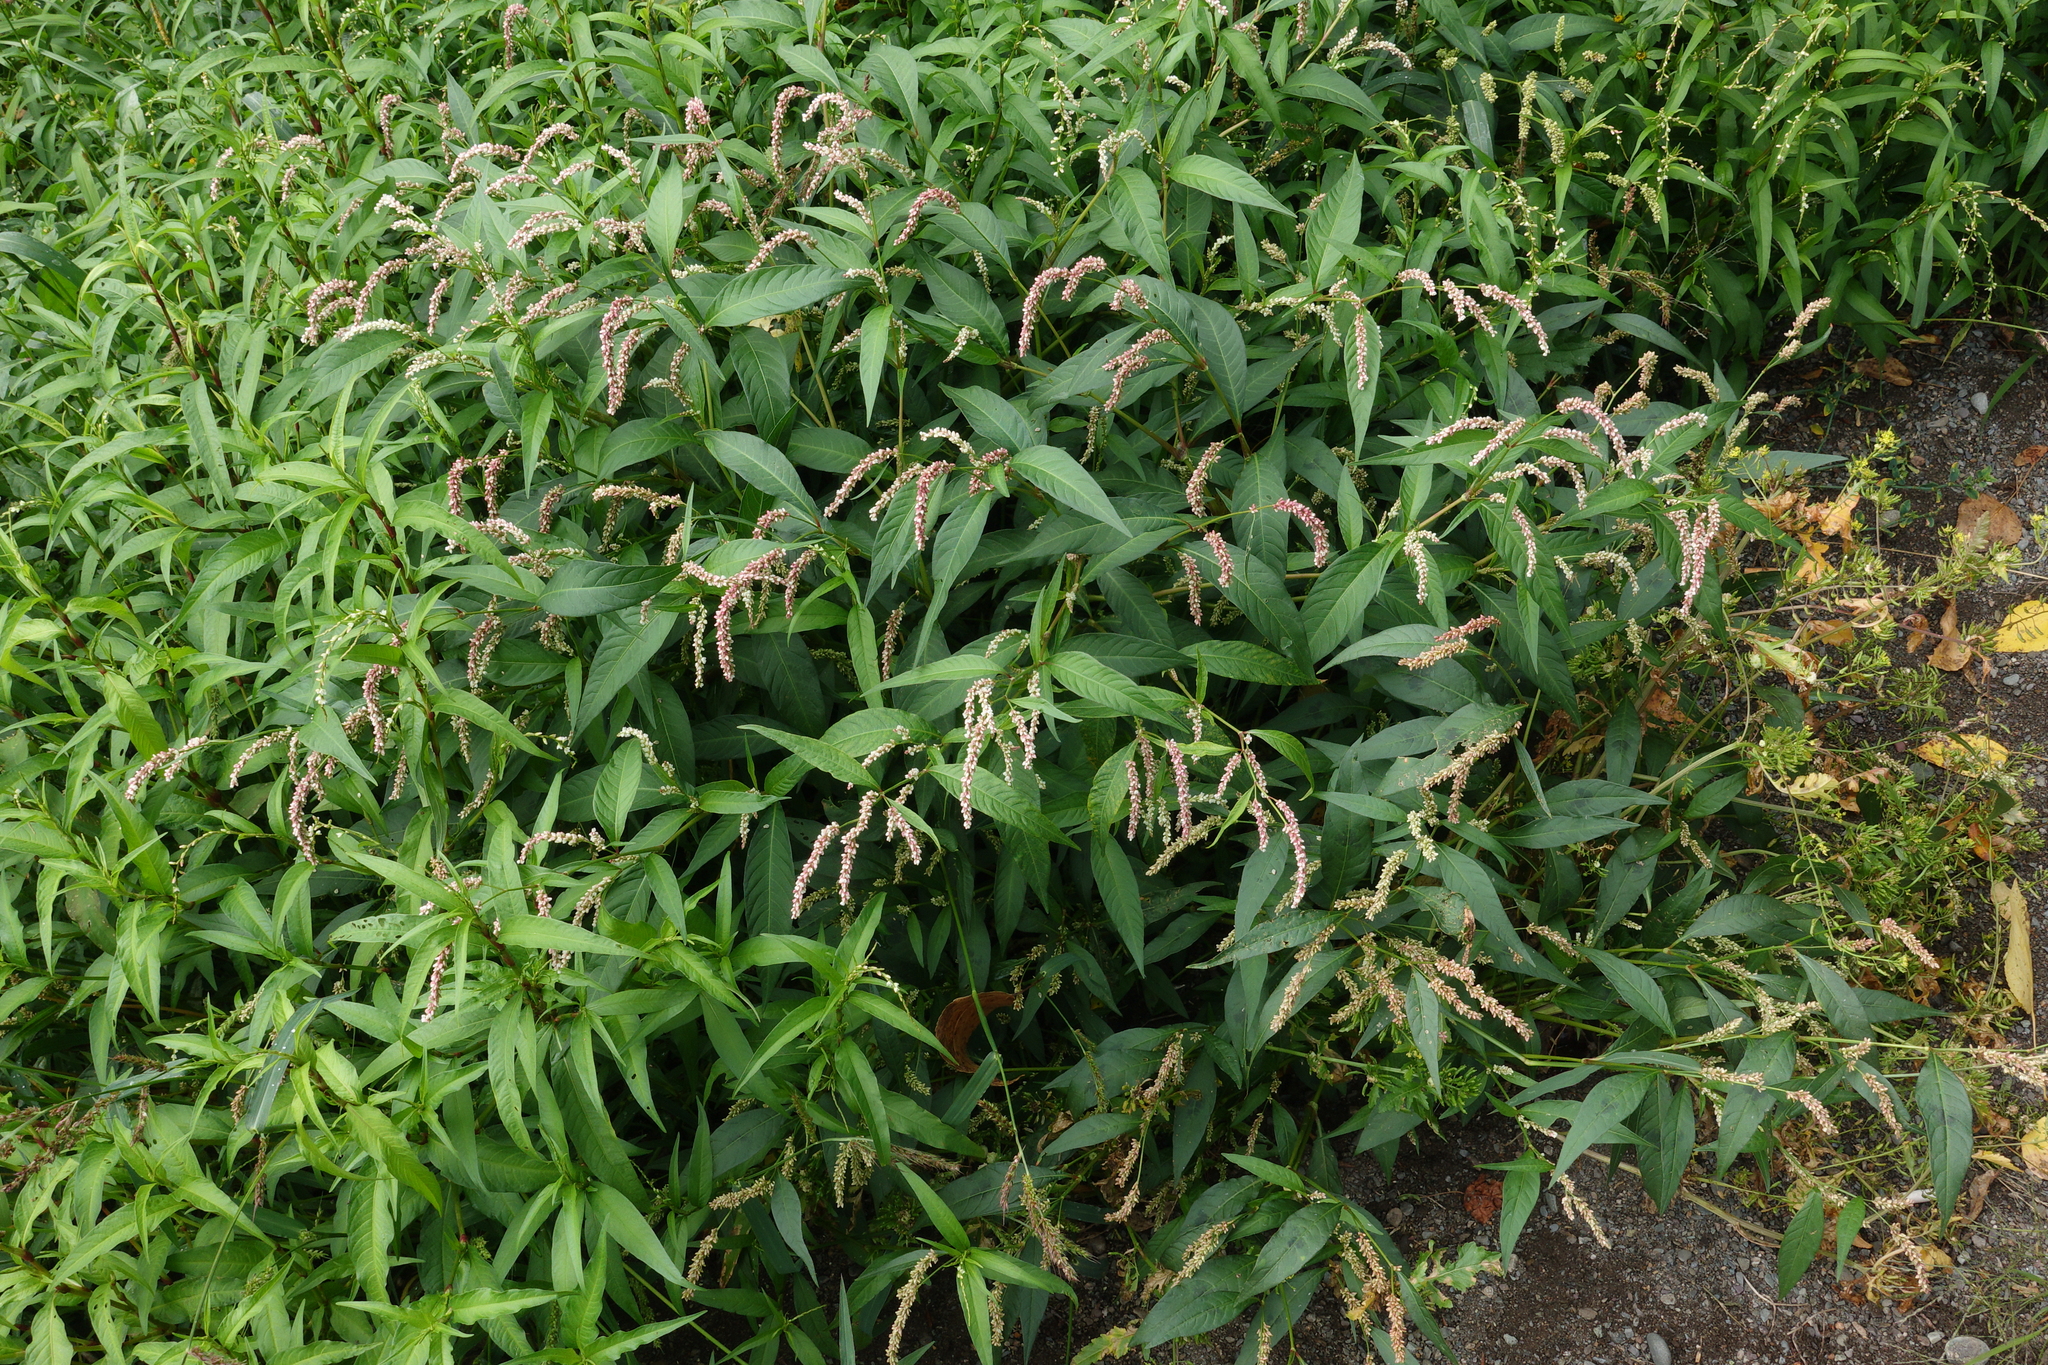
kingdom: Plantae
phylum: Tracheophyta
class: Magnoliopsida
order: Caryophyllales
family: Polygonaceae
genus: Persicaria
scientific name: Persicaria lapathifolia
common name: Curlytop knotweed
